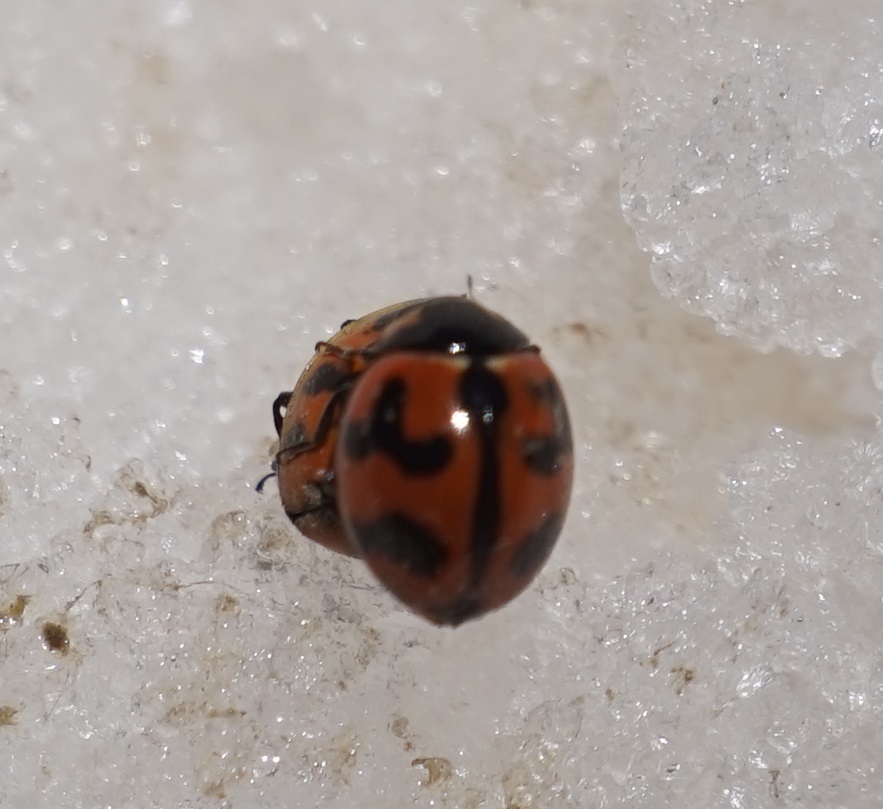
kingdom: Animalia
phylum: Arthropoda
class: Insecta
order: Coleoptera
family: Coccinellidae
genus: Coccinella
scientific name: Coccinella transversalis
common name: Transverse lady beetle
